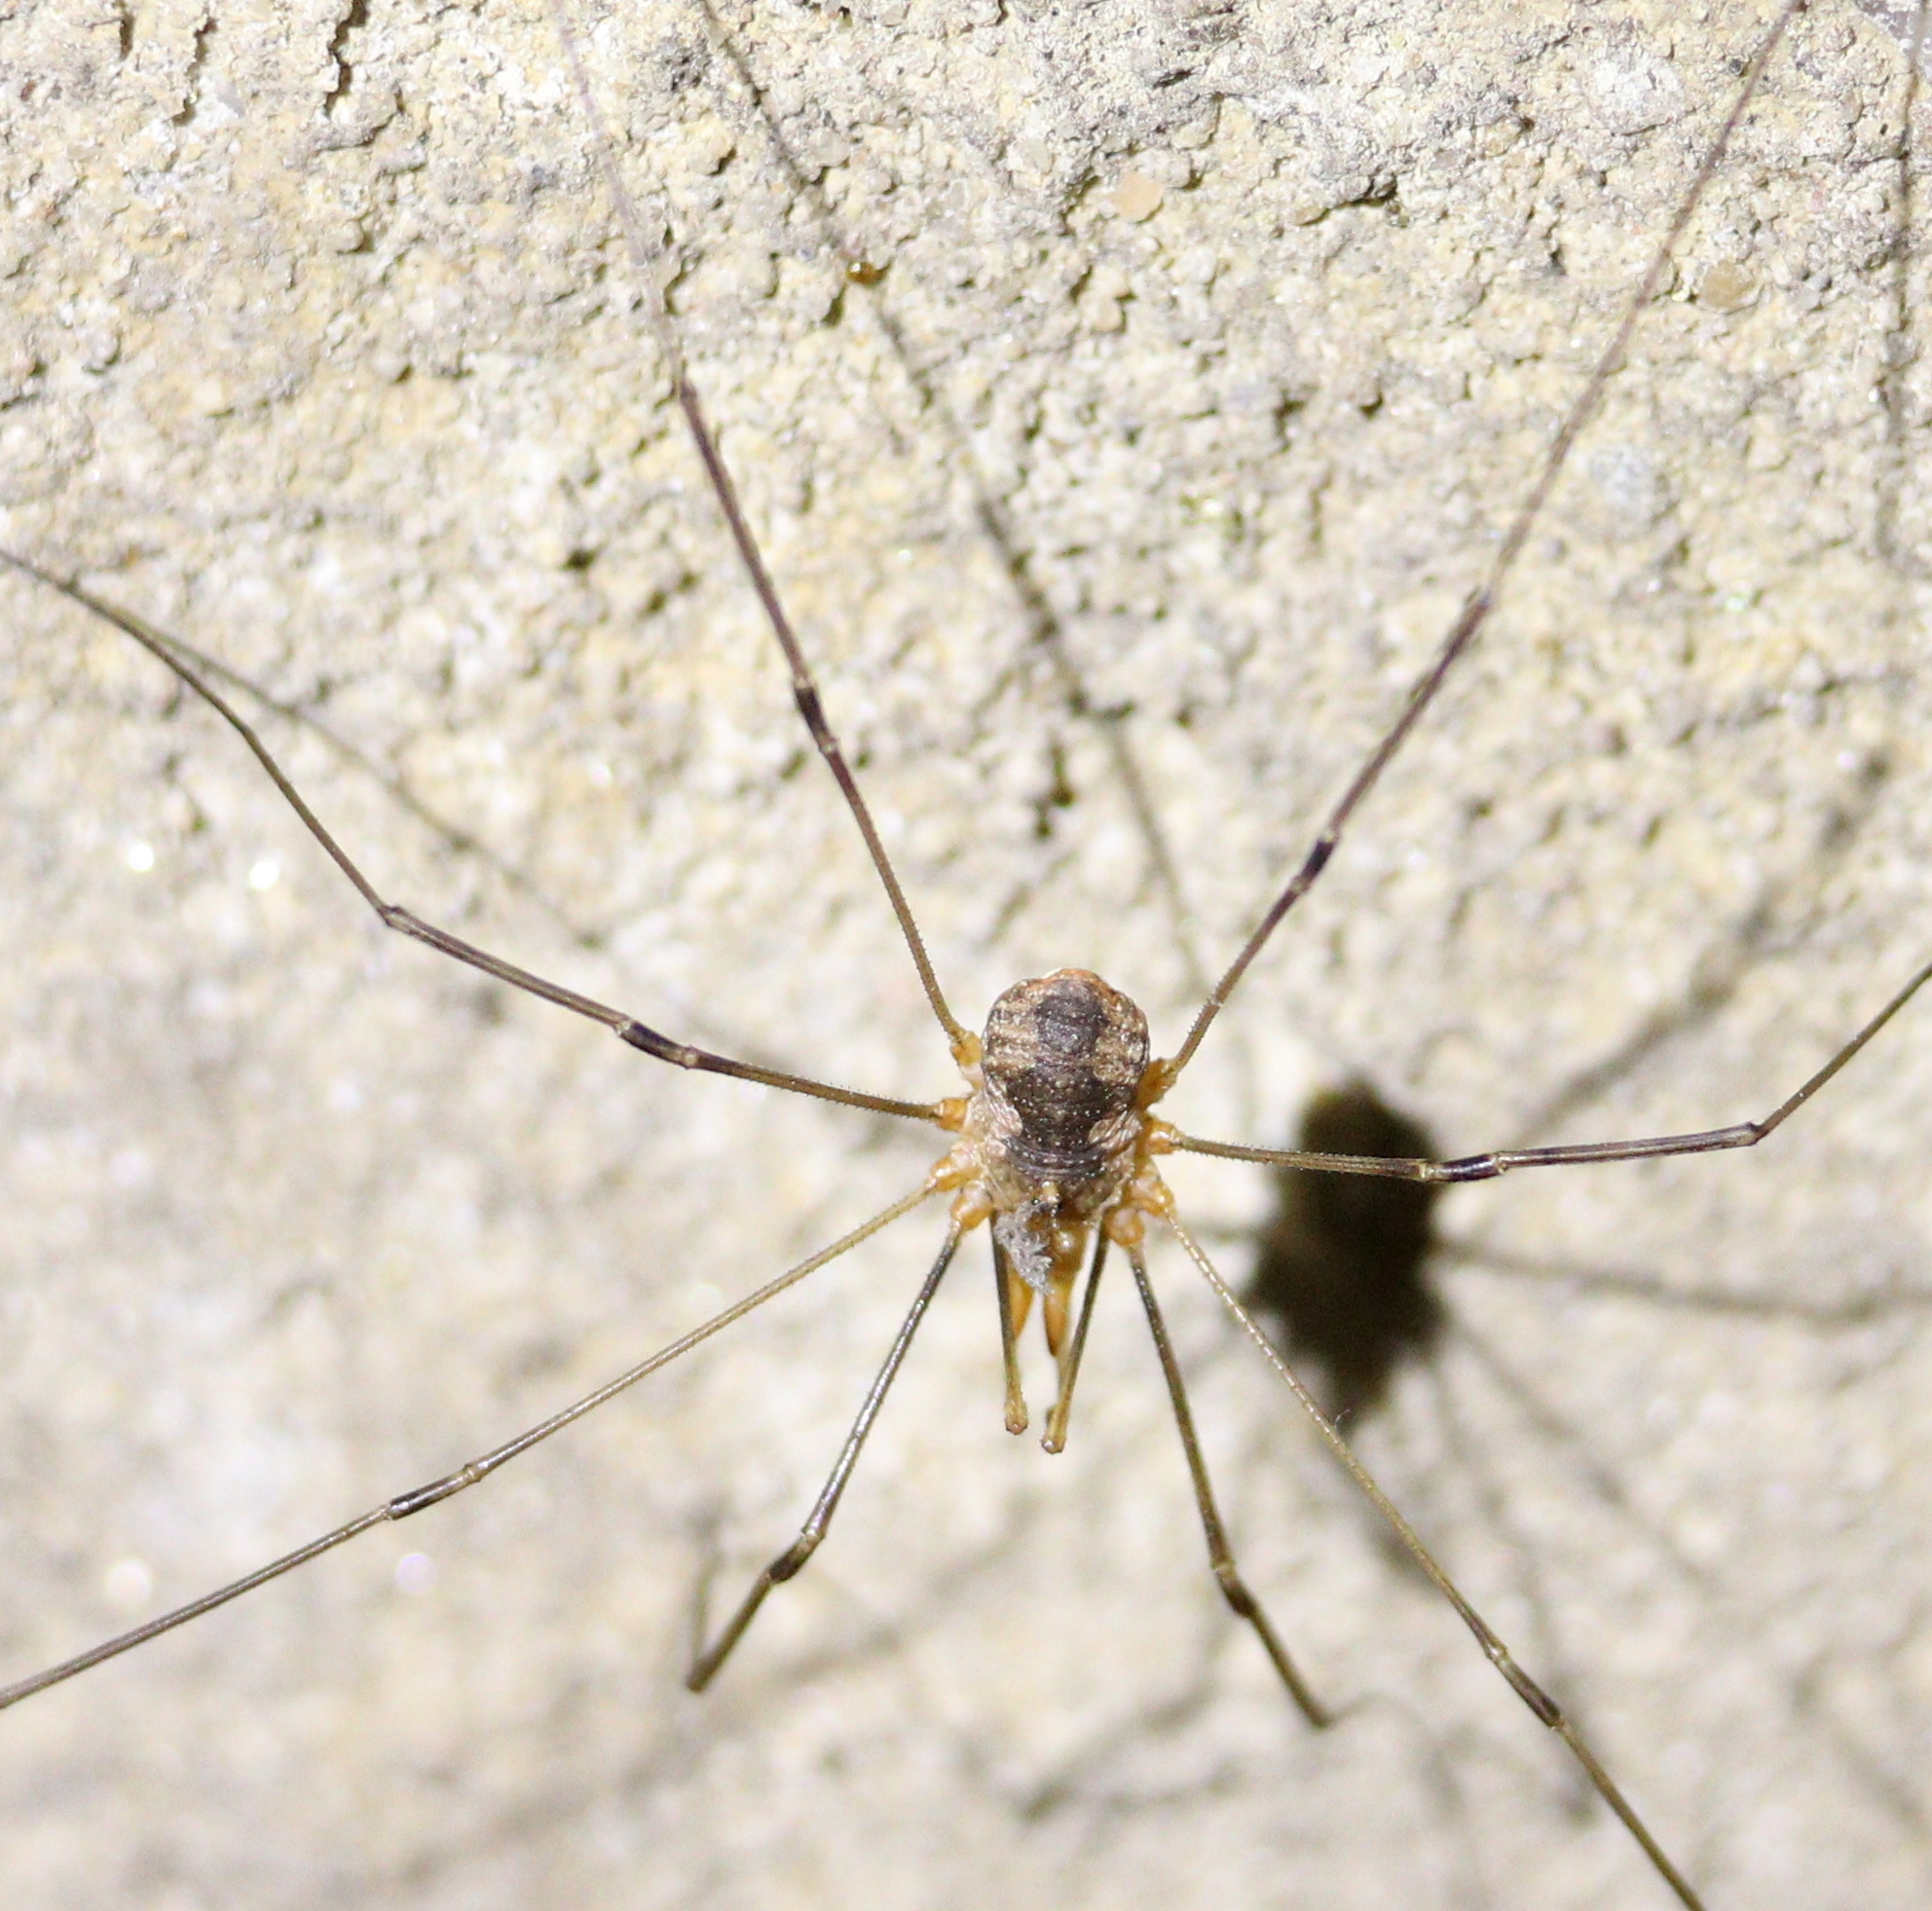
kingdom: Animalia
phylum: Arthropoda
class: Arachnida
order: Opiliones
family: Phalangiidae
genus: Phalangium
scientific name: Phalangium opilio
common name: Daddy longleg
